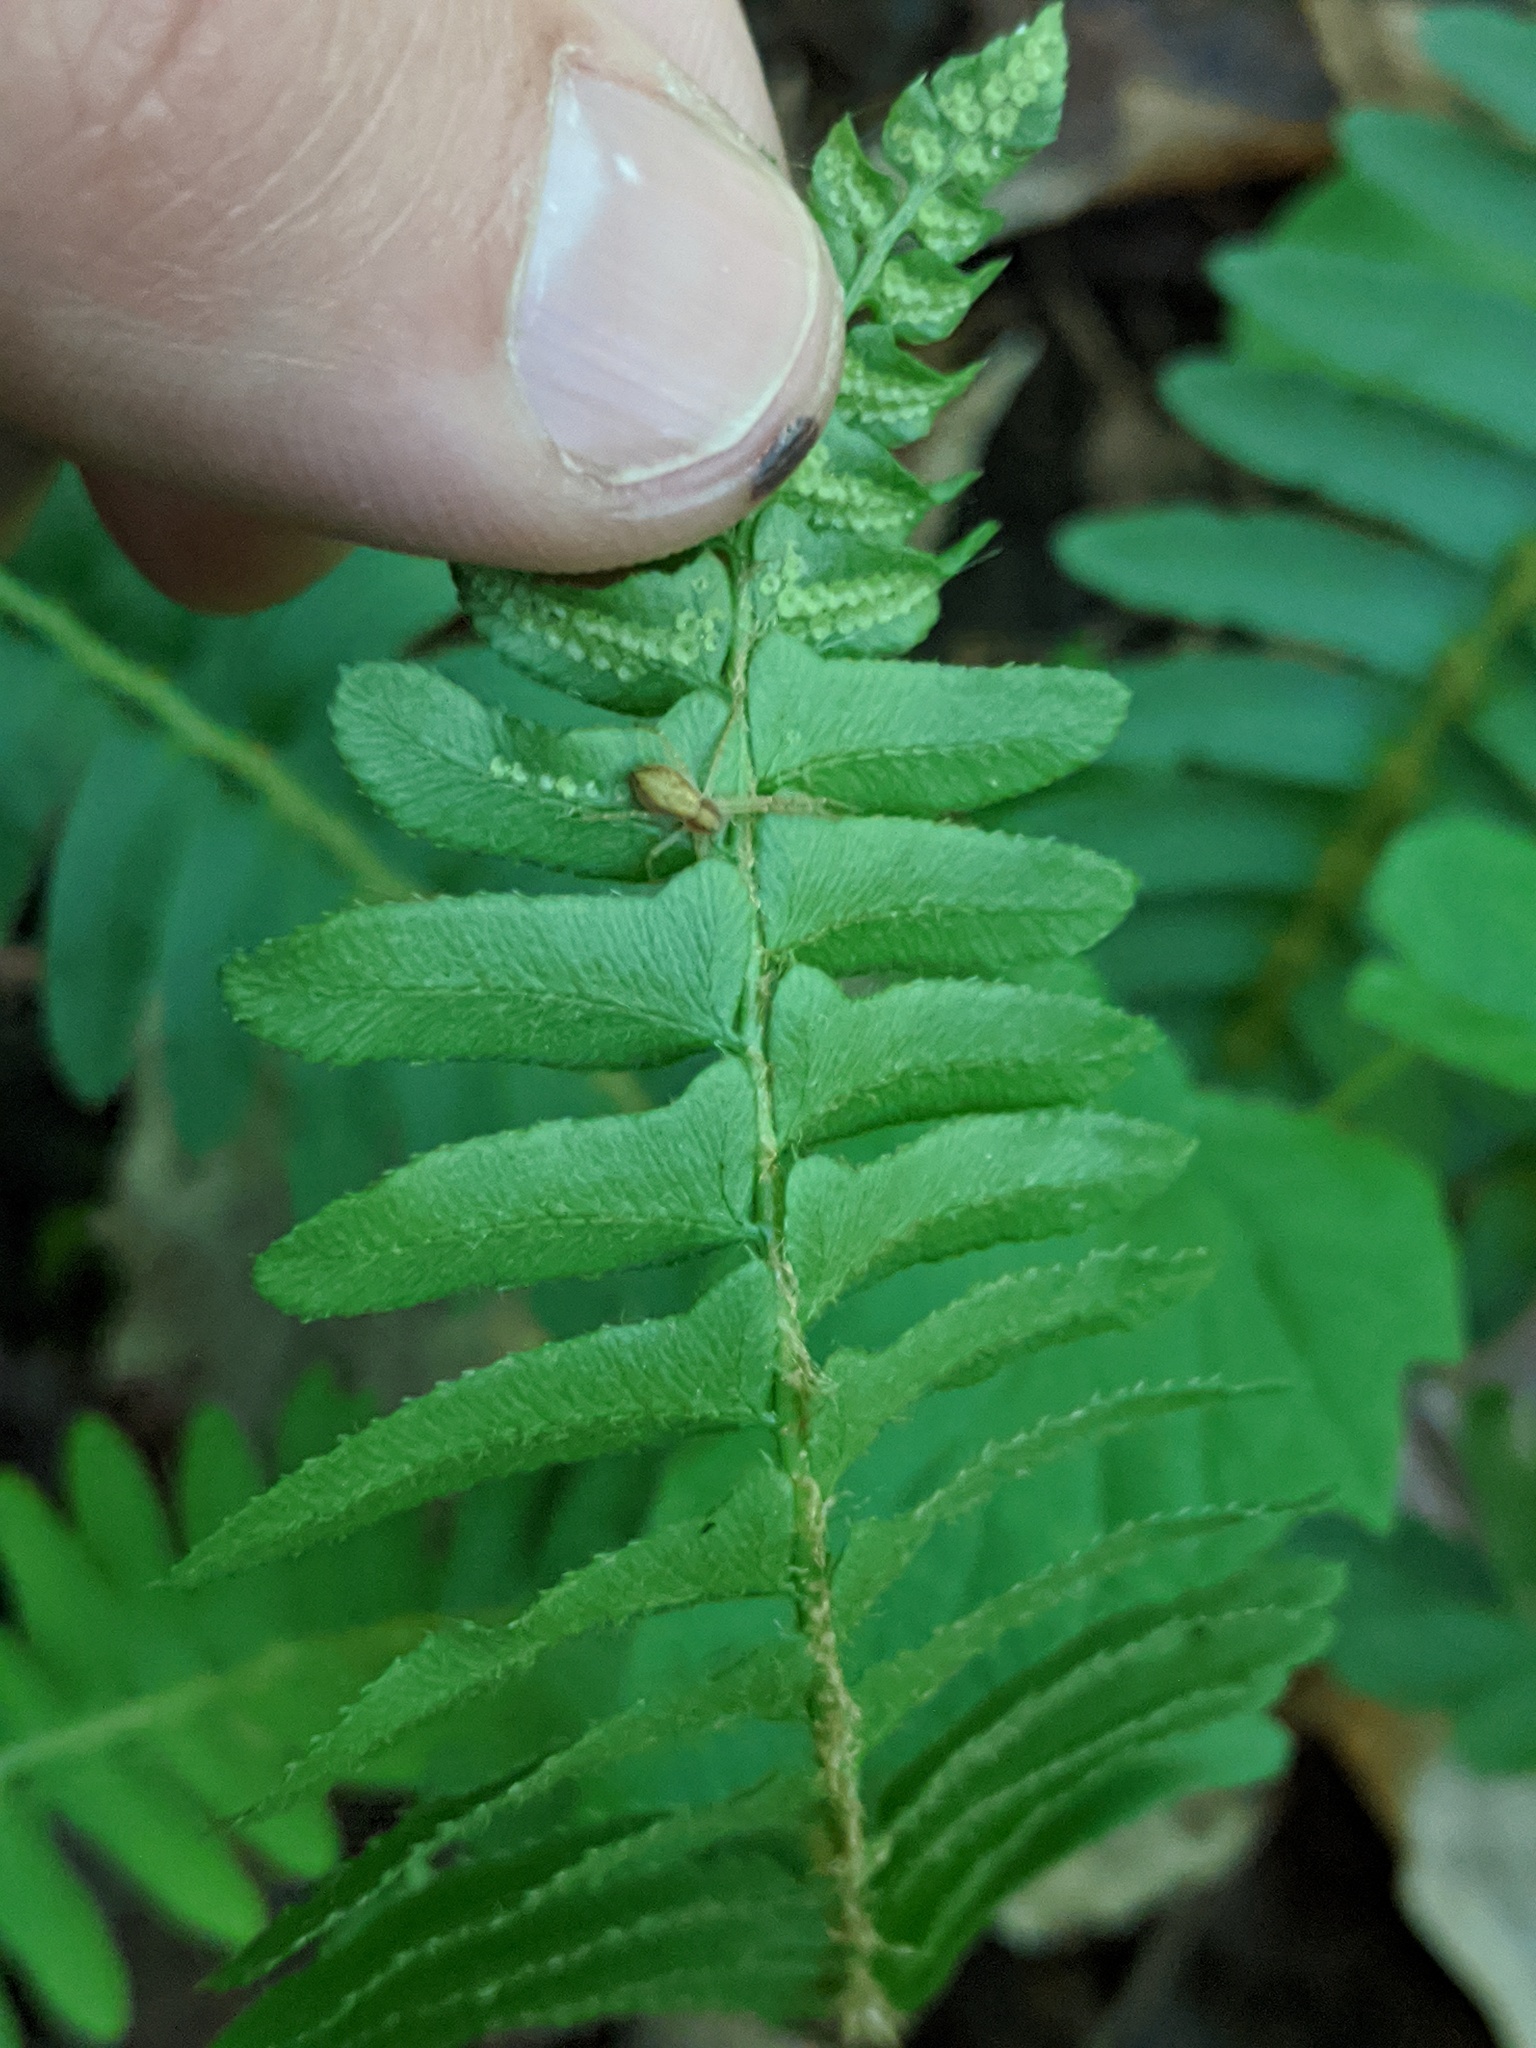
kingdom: Plantae
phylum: Tracheophyta
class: Polypodiopsida
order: Polypodiales
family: Dryopteridaceae
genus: Polystichum
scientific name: Polystichum acrostichoides
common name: Christmas fern
